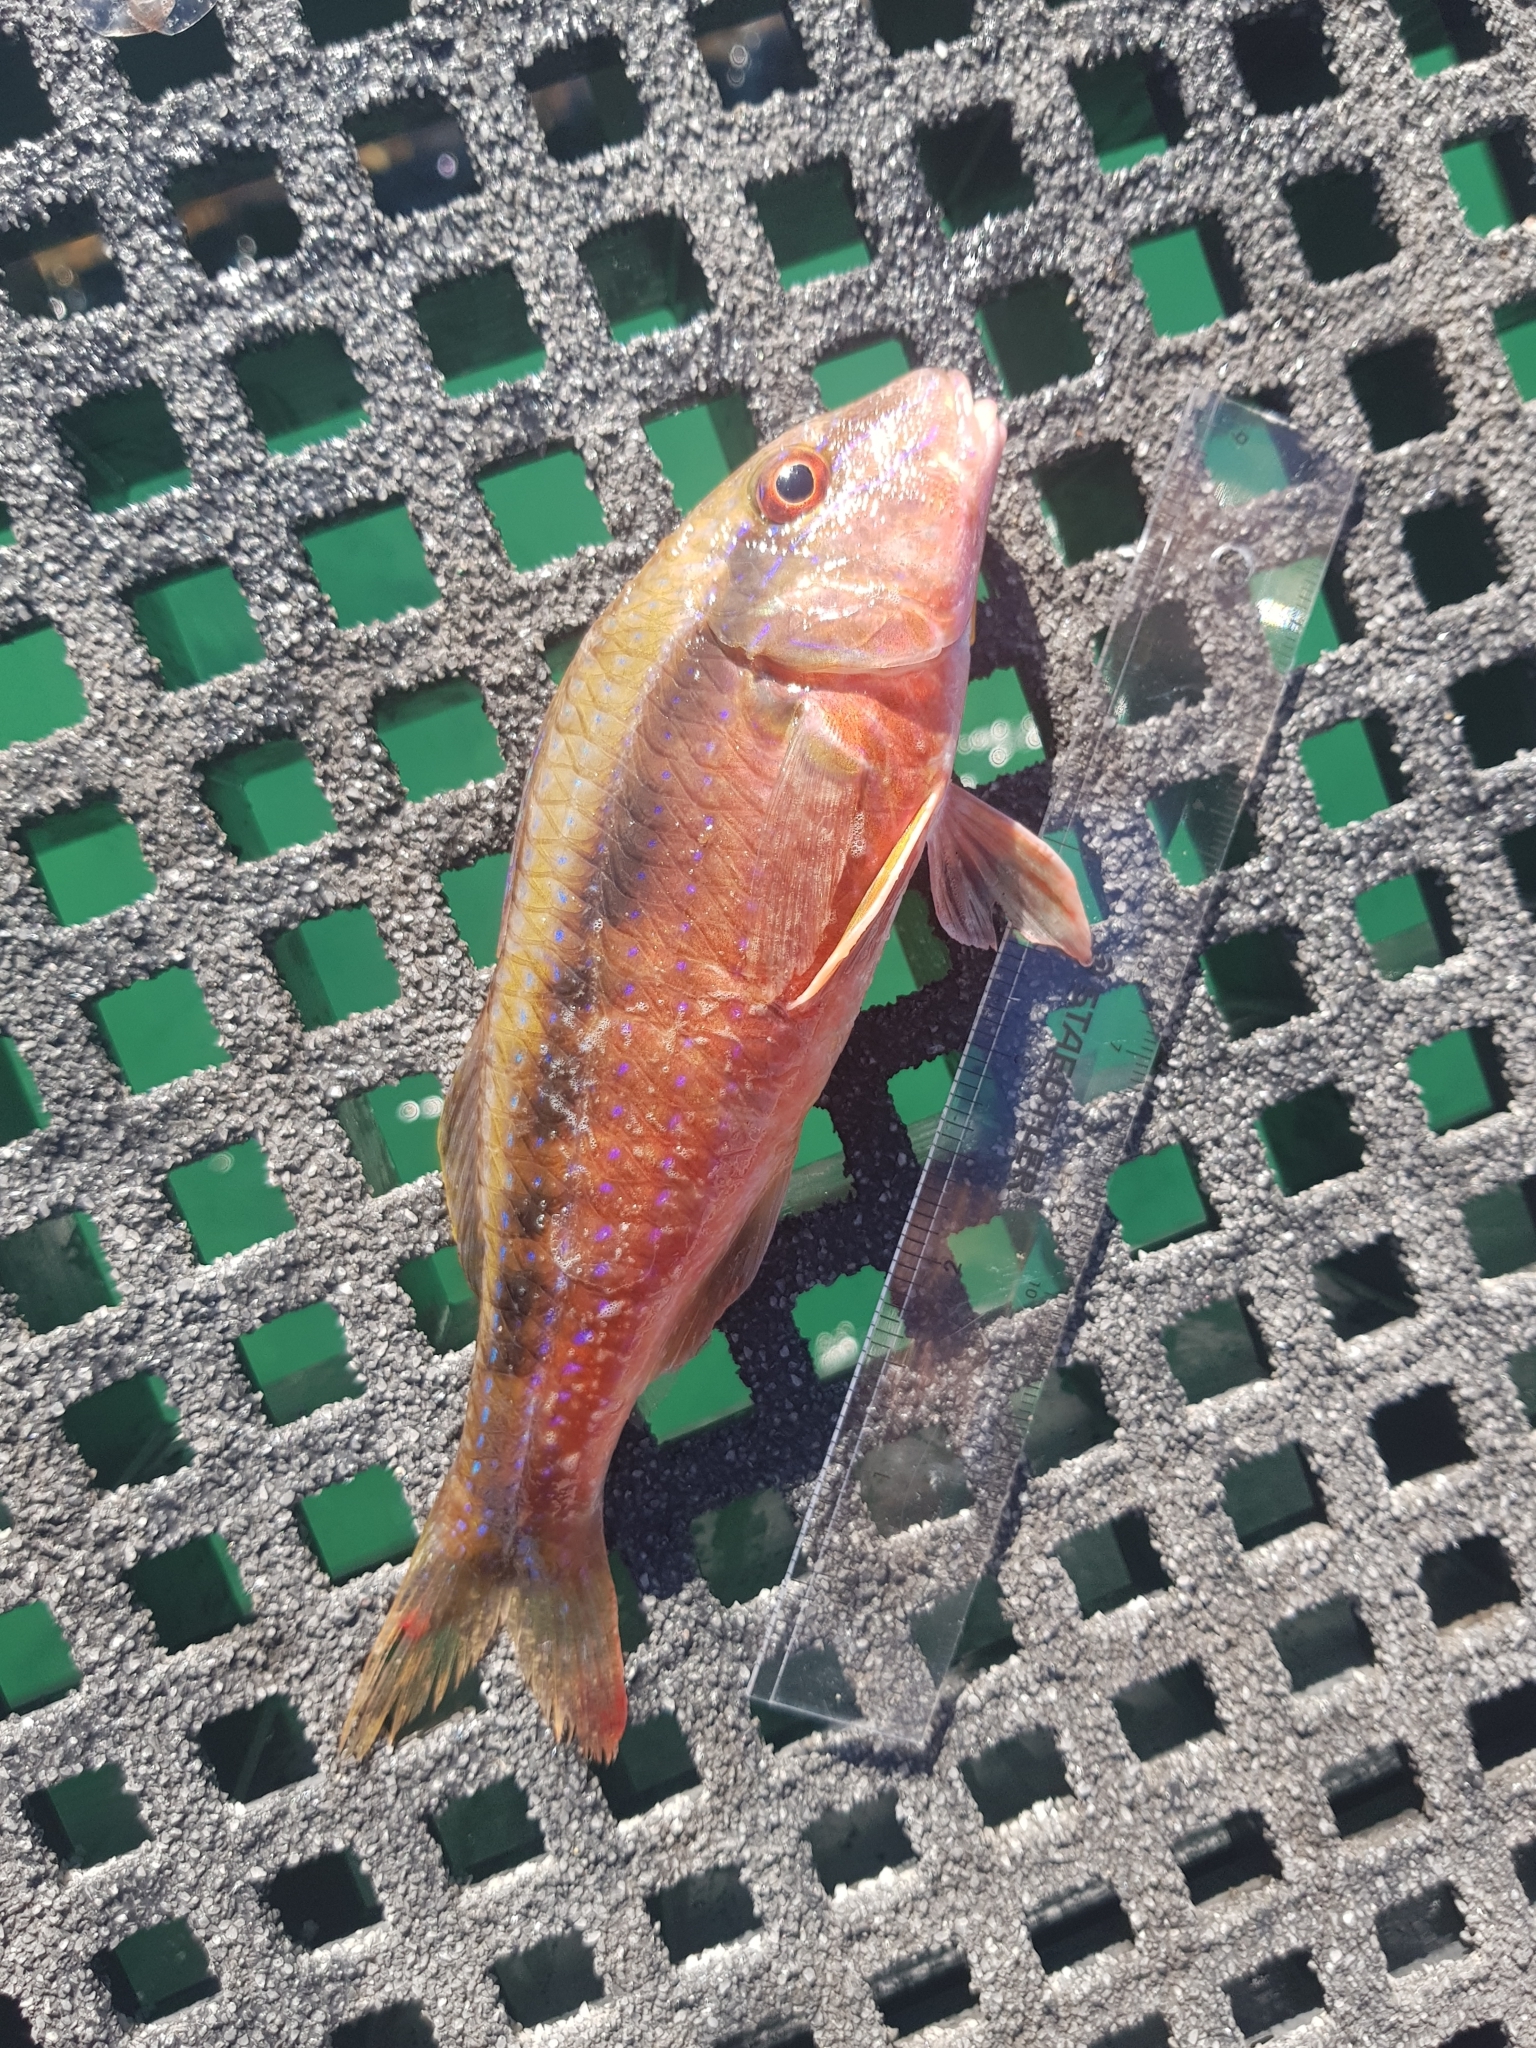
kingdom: Animalia
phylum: Chordata
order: Perciformes
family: Mullidae
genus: Upeneichthys
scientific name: Upeneichthys vlamingii
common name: Red mullet
